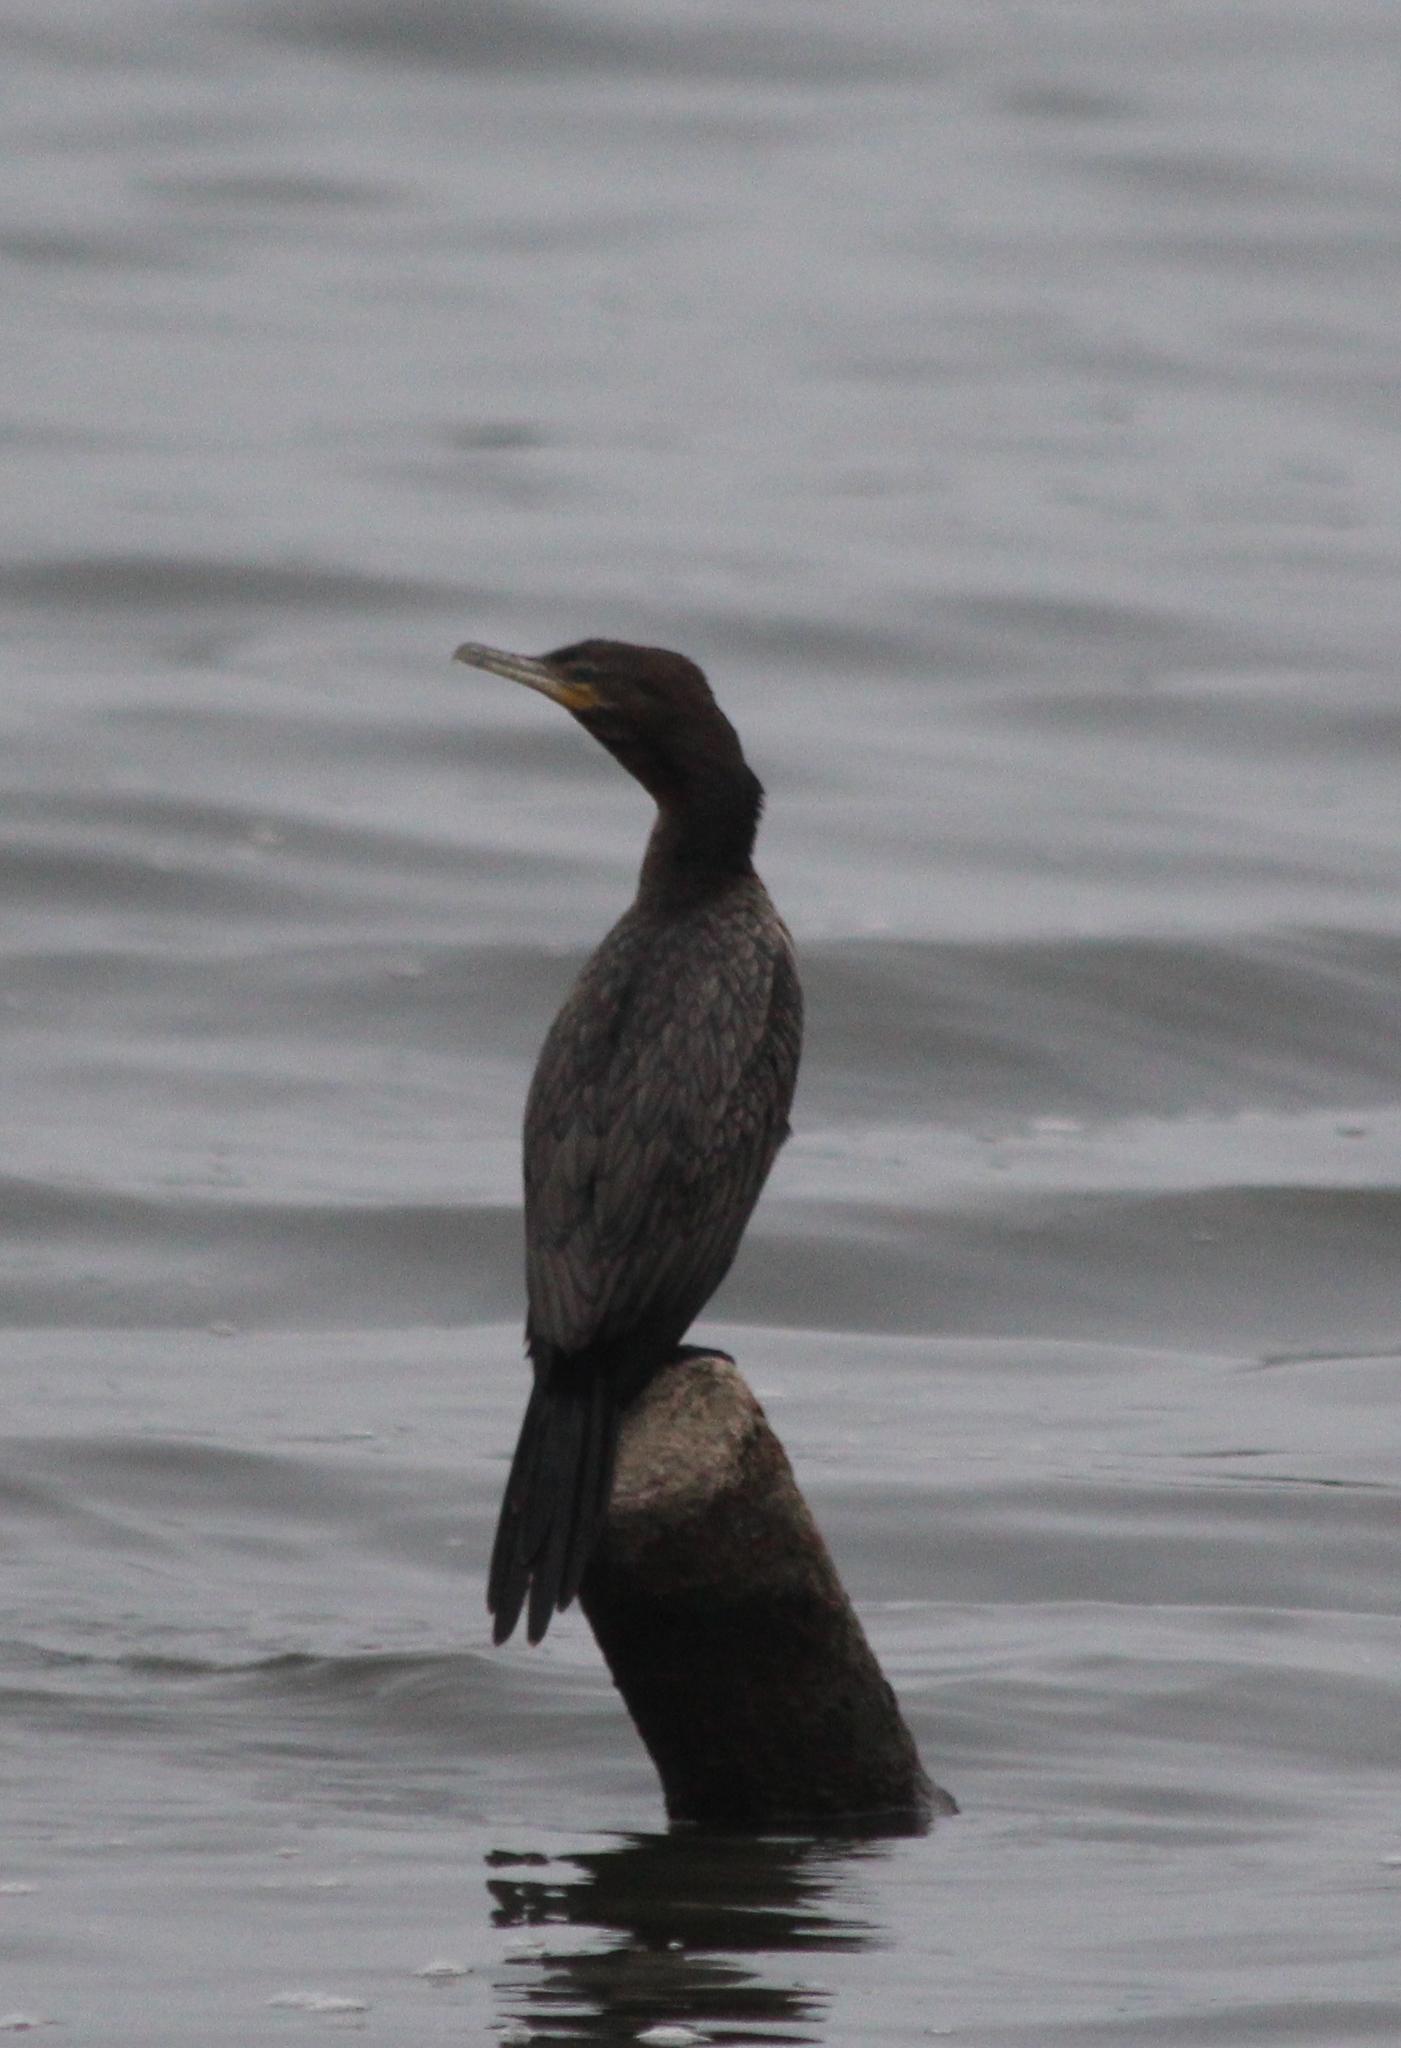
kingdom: Animalia
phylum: Chordata
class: Aves
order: Suliformes
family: Phalacrocoracidae
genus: Phalacrocorax
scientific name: Phalacrocorax brasilianus
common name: Neotropic cormorant
